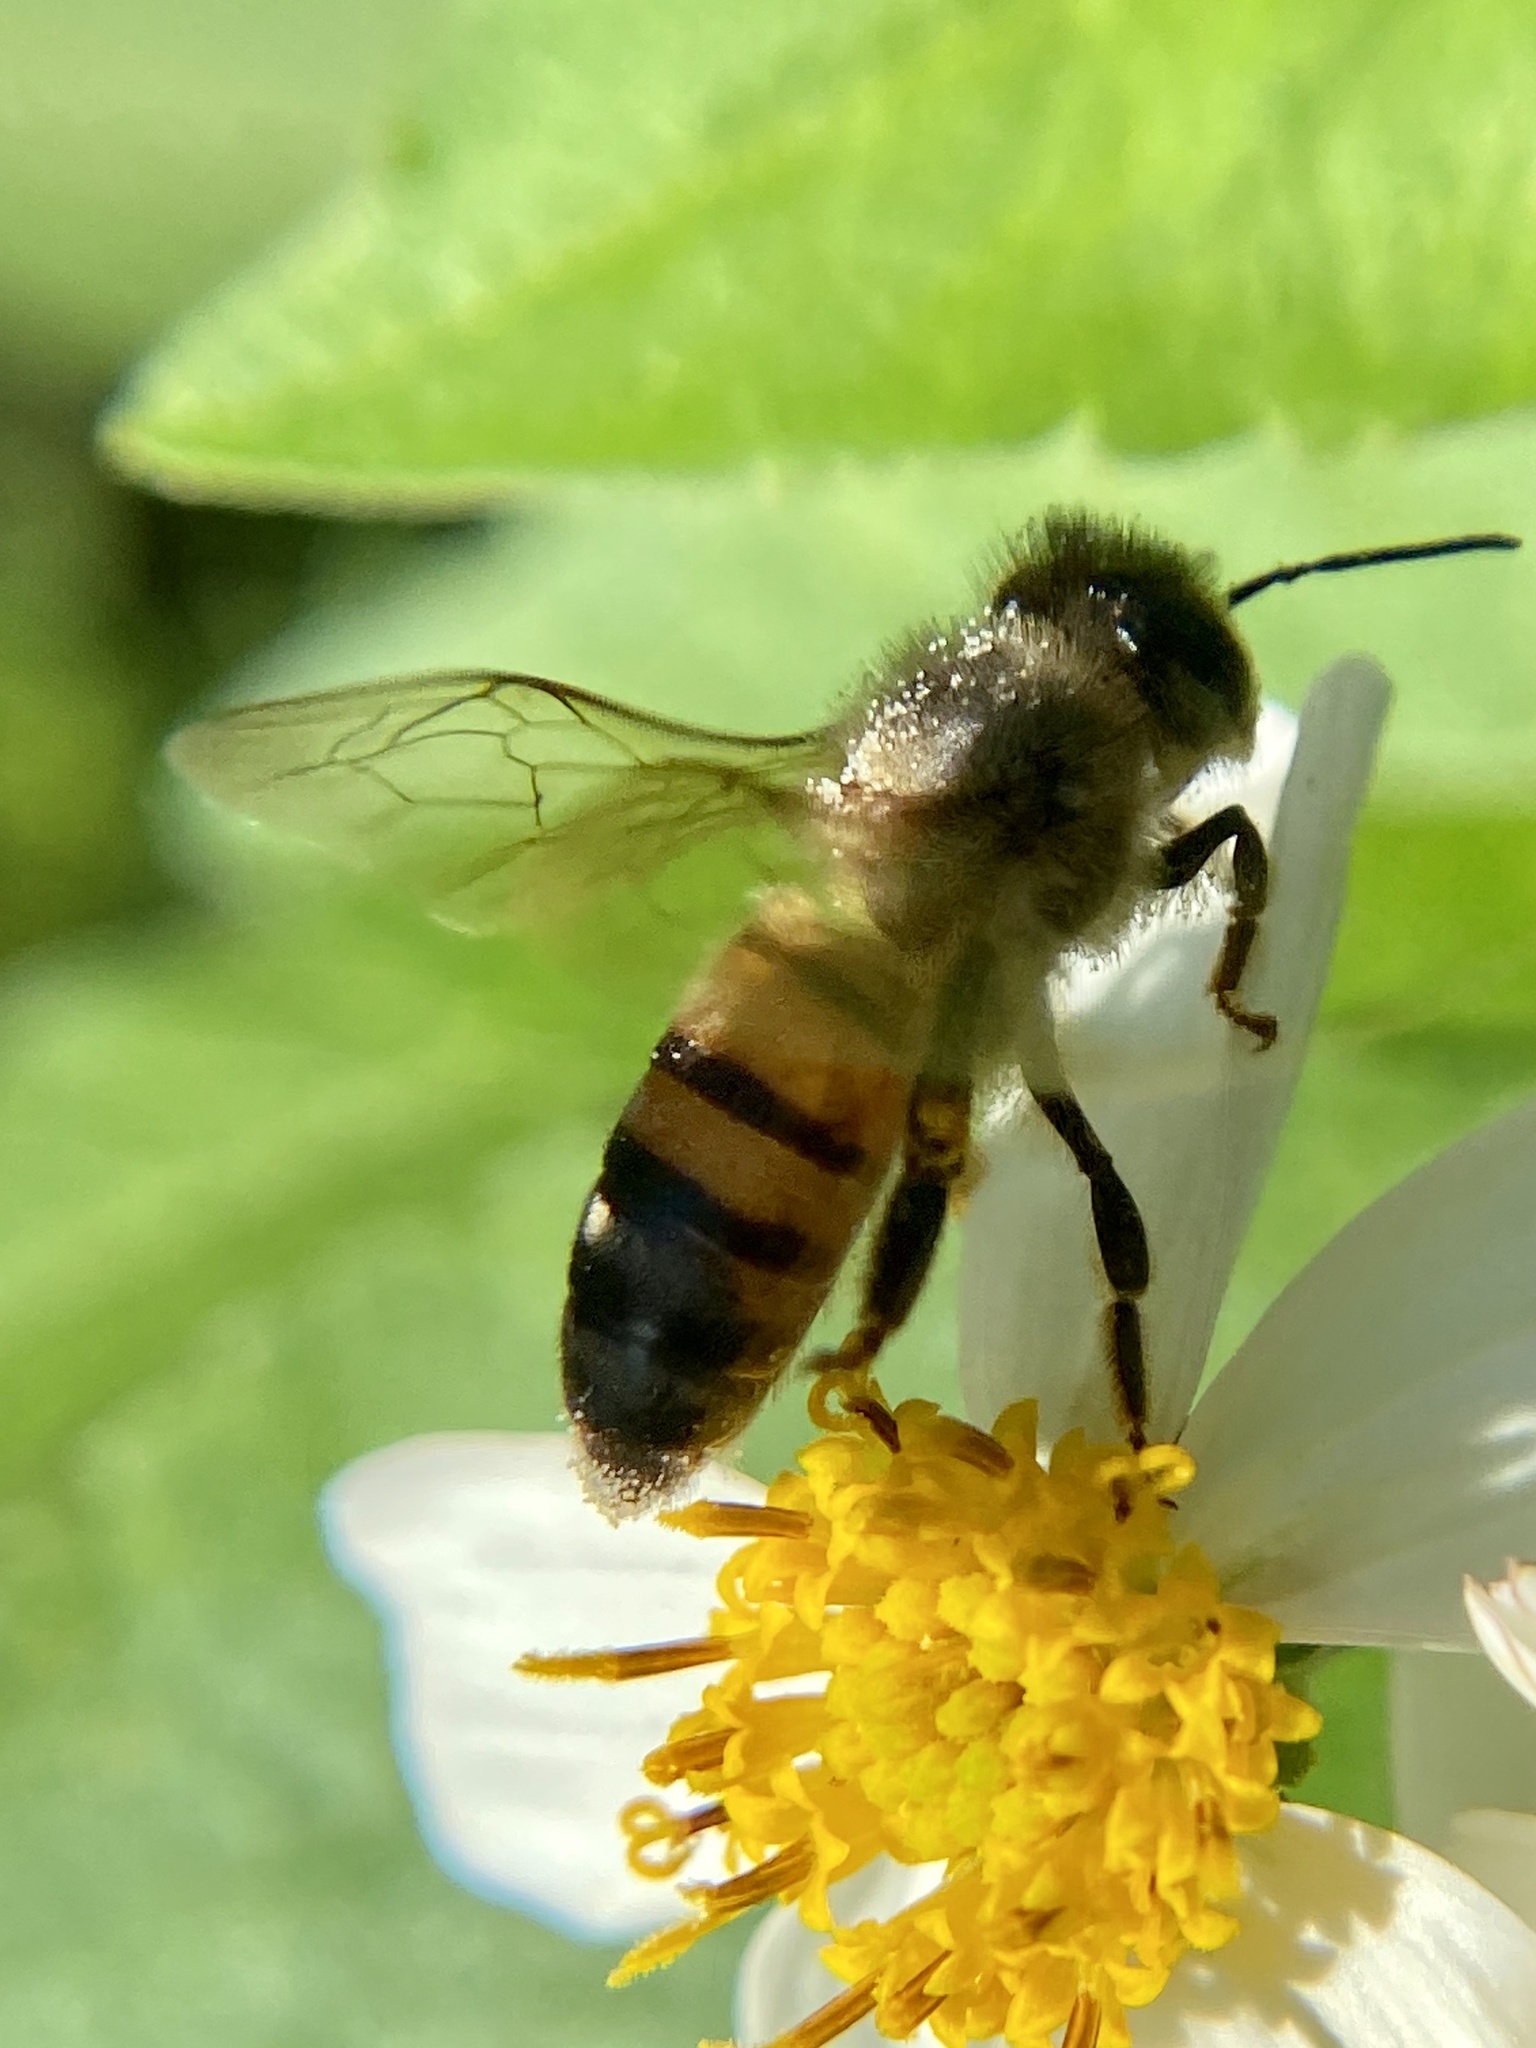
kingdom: Animalia
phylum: Arthropoda
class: Insecta
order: Hymenoptera
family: Apidae
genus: Apis
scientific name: Apis mellifera
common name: Honey bee
